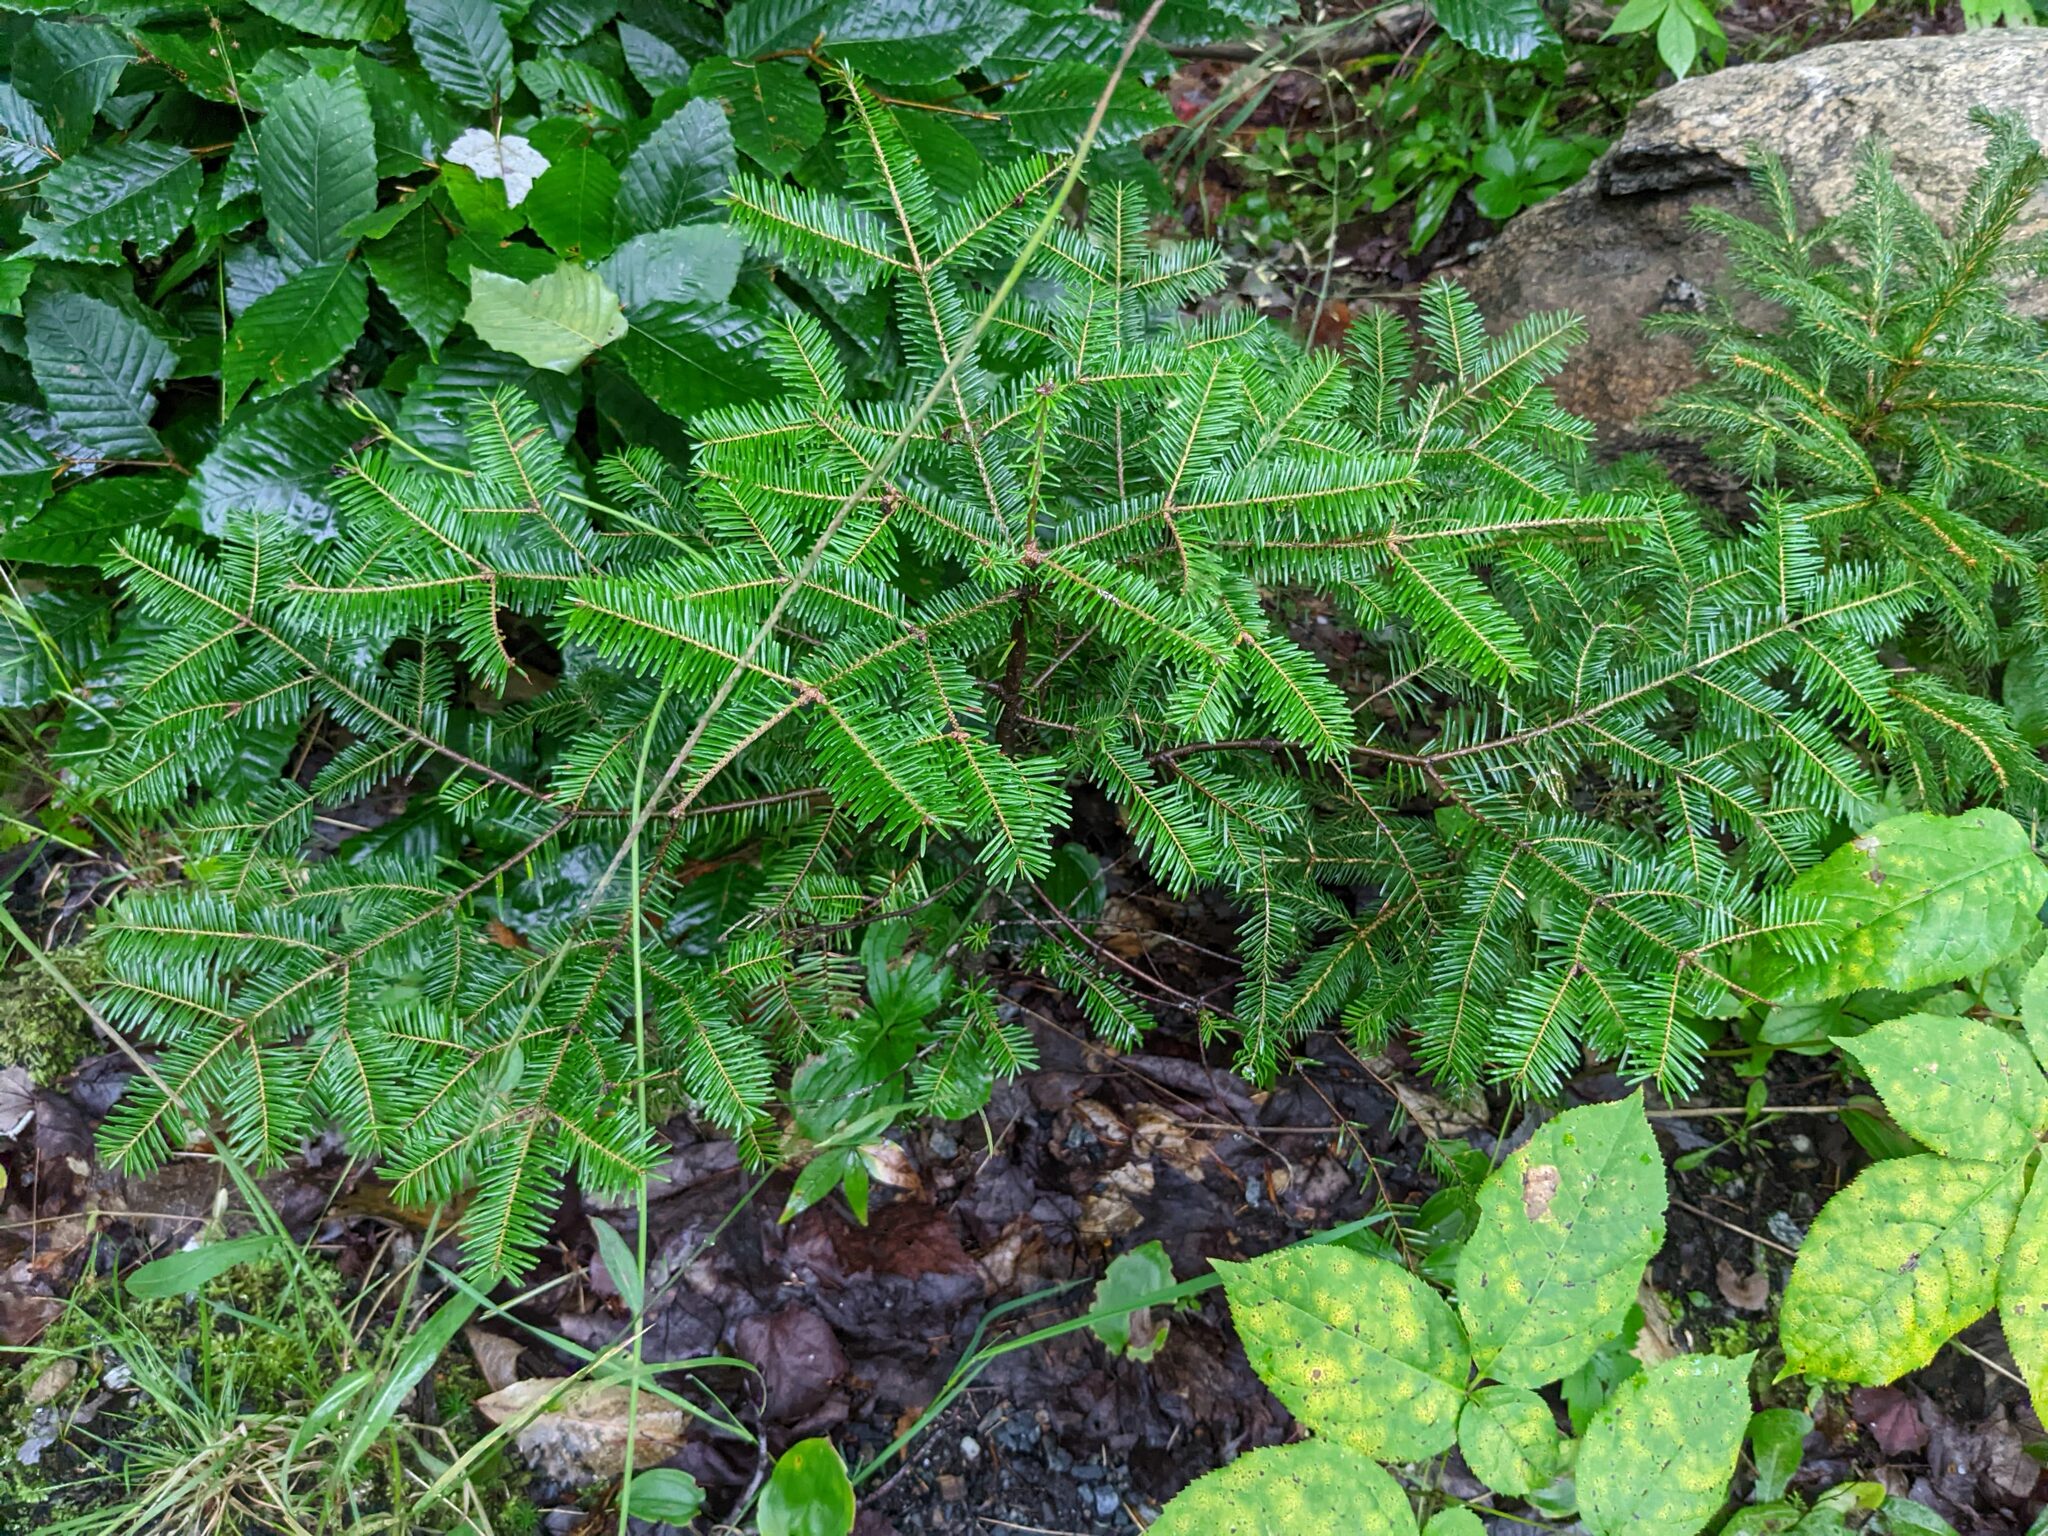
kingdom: Plantae
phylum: Tracheophyta
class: Pinopsida
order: Pinales
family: Pinaceae
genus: Abies
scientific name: Abies balsamea
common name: Balsam fir
